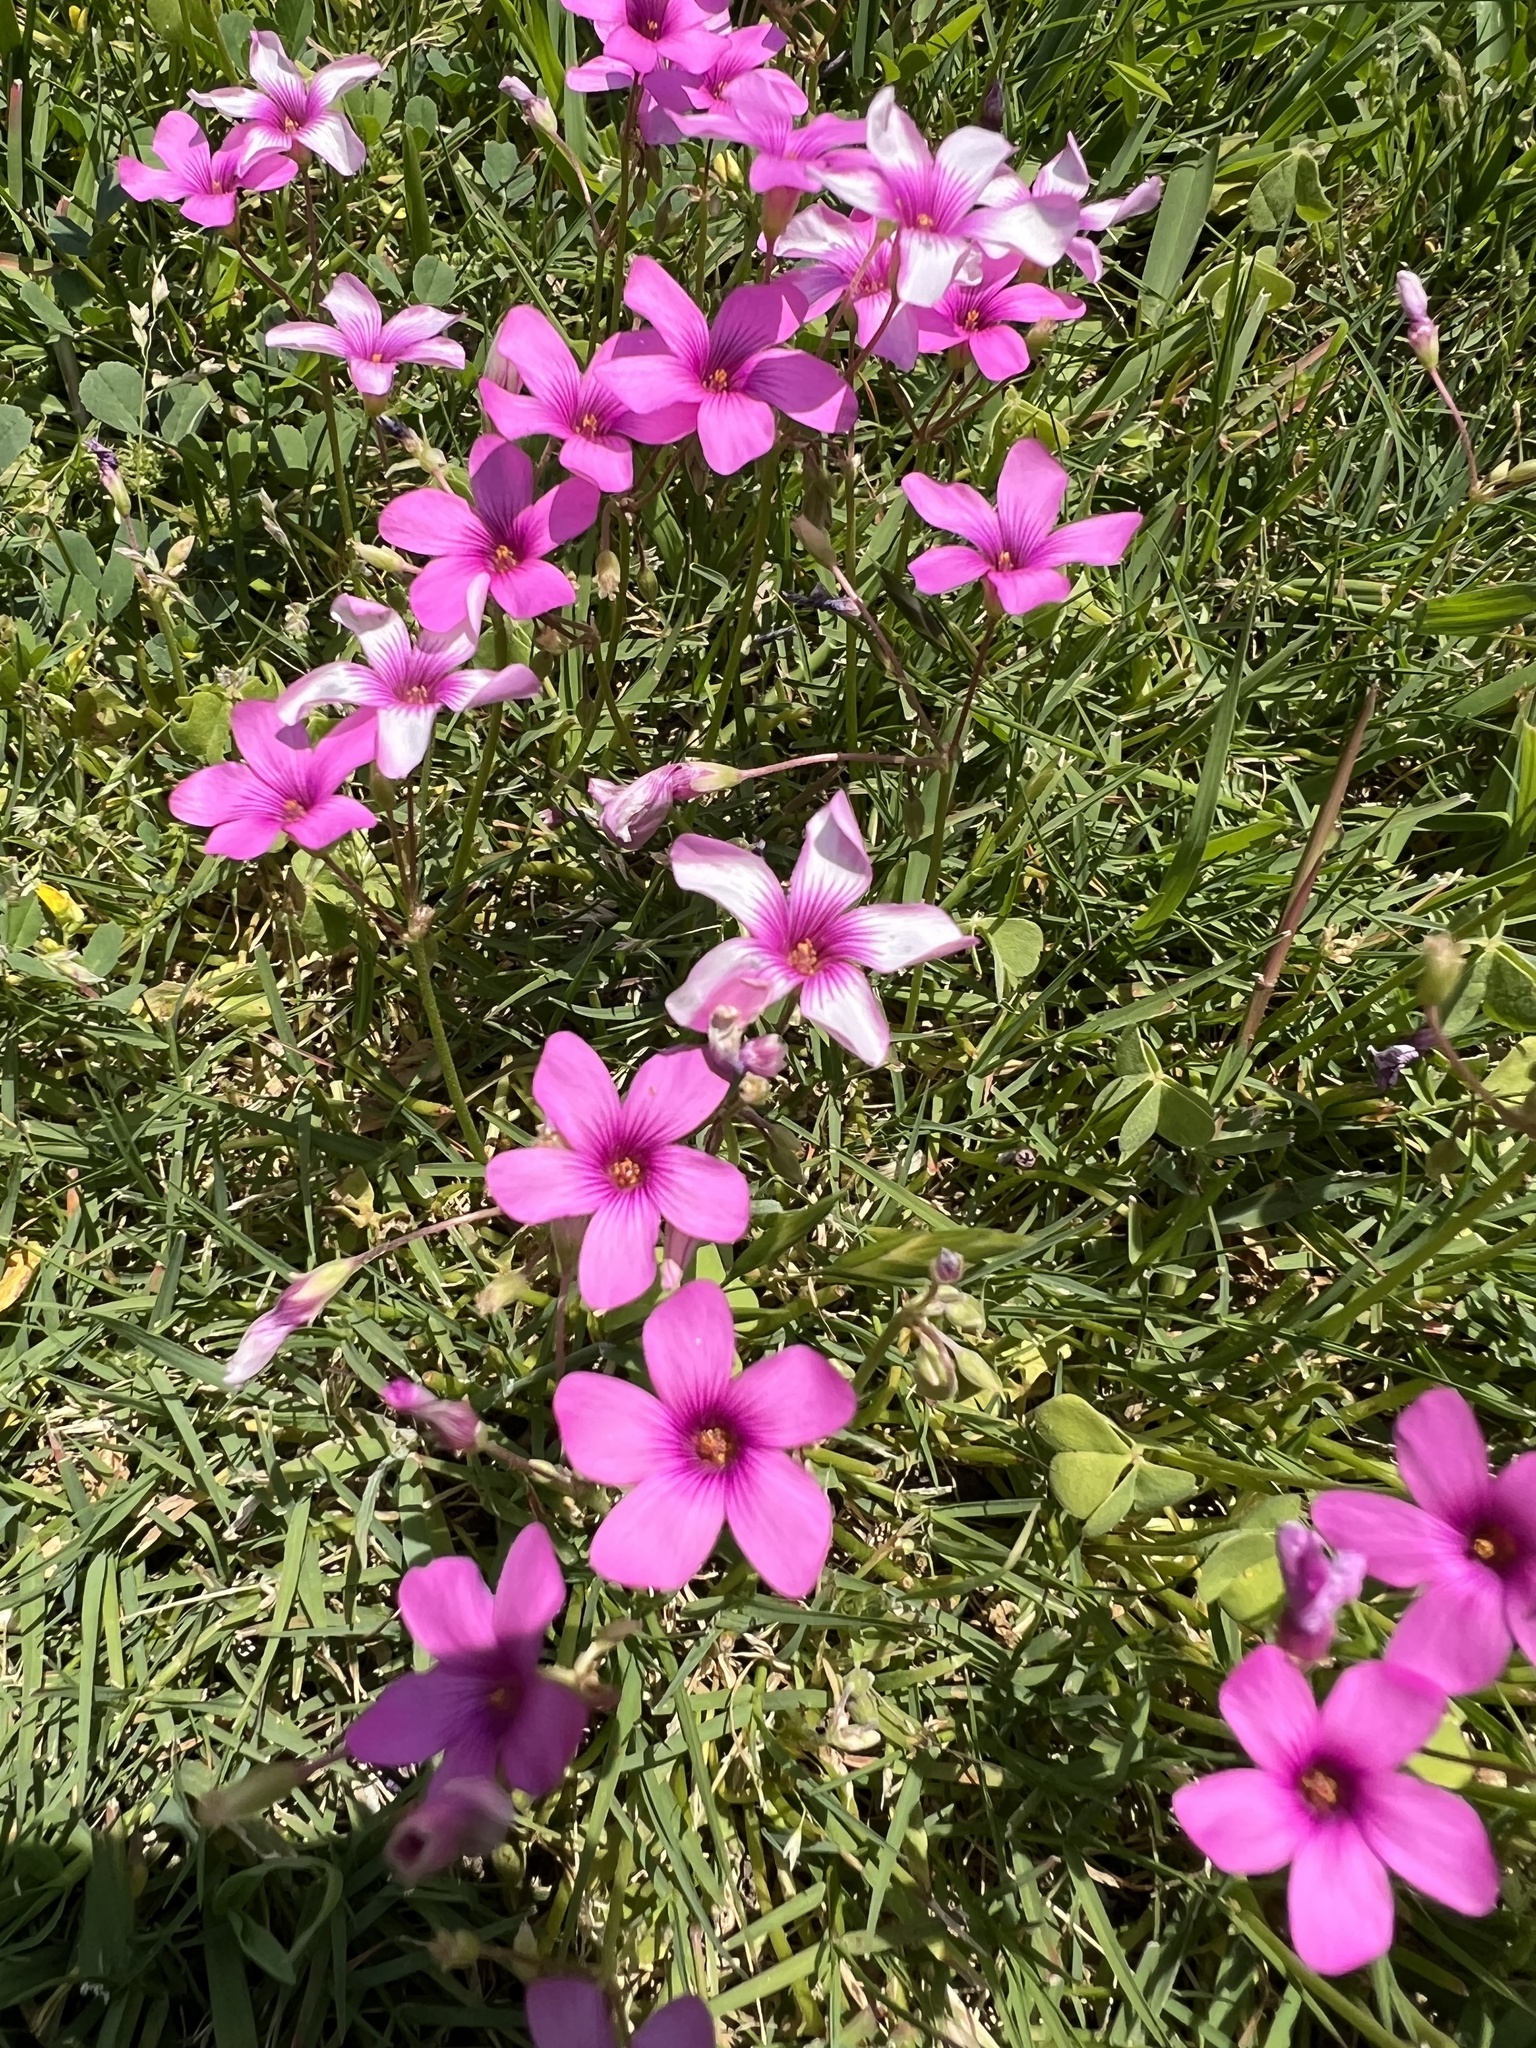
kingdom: Plantae
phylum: Tracheophyta
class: Magnoliopsida
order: Oxalidales
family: Oxalidaceae
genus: Oxalis
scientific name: Oxalis articulata
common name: Pink-sorrel
